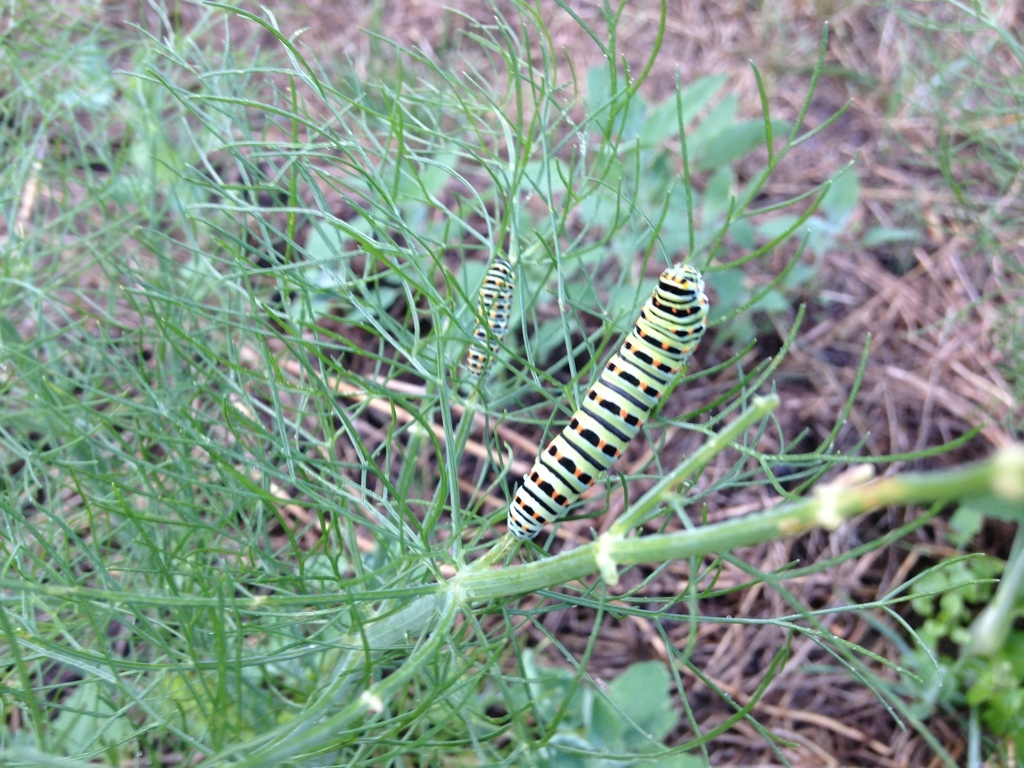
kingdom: Animalia
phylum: Arthropoda
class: Insecta
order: Lepidoptera
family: Papilionidae
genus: Papilio
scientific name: Papilio machaon
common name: Swallowtail
